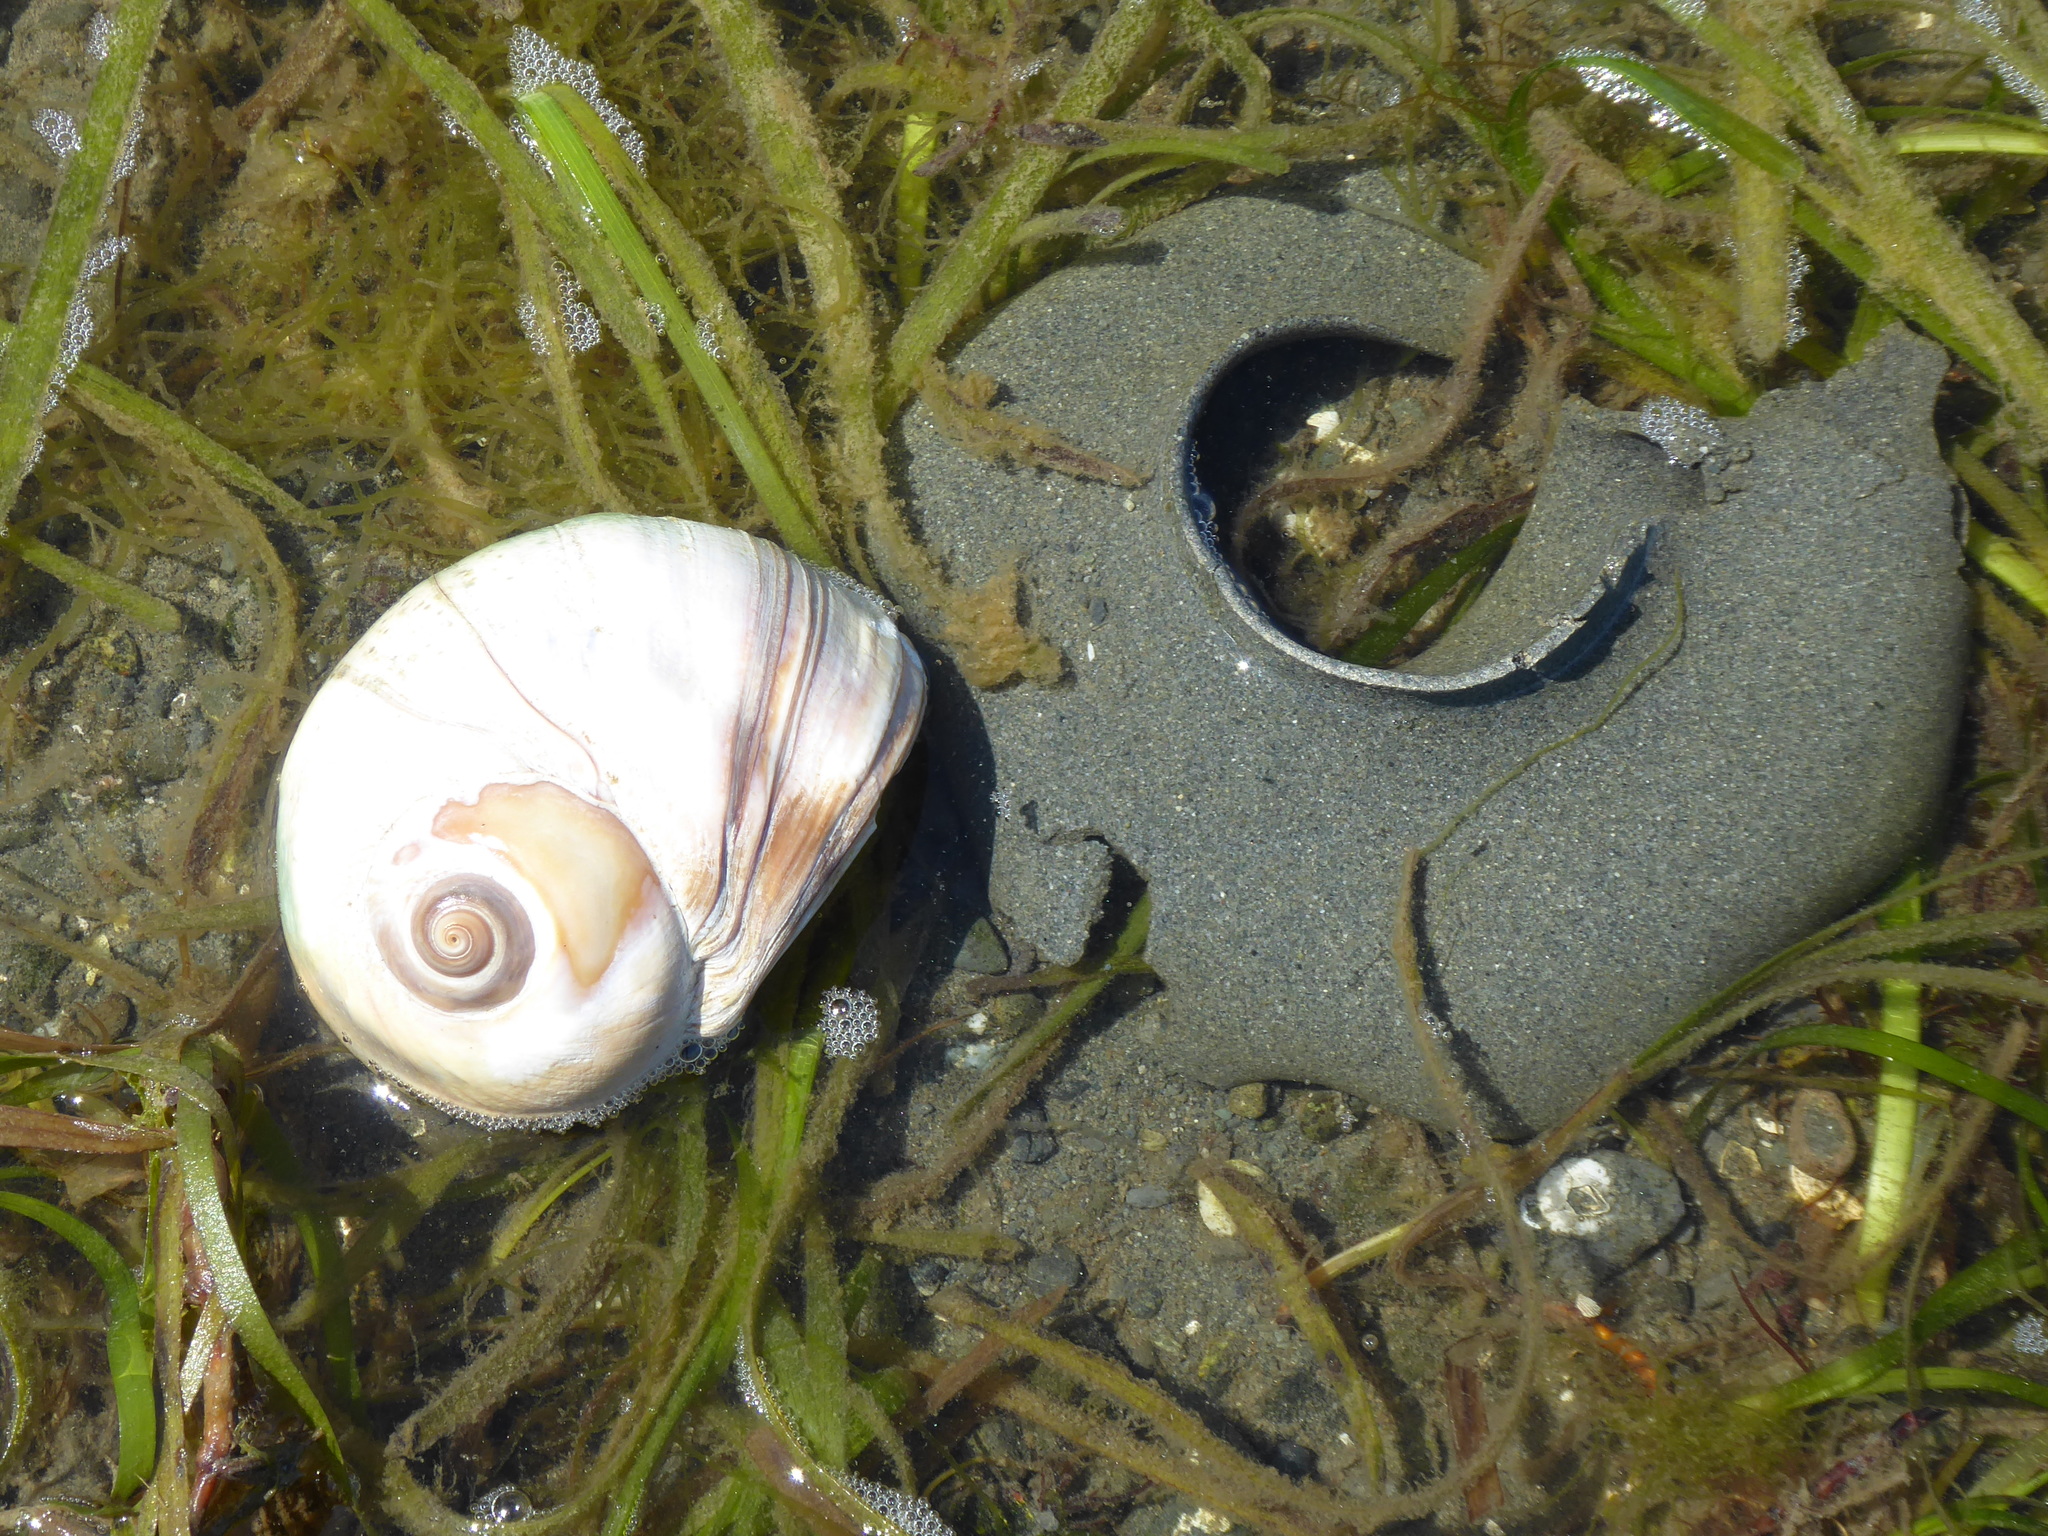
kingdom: Animalia
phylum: Mollusca
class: Gastropoda
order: Littorinimorpha
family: Naticidae
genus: Neverita
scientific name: Neverita lewisii
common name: Lewis' moonsnail
